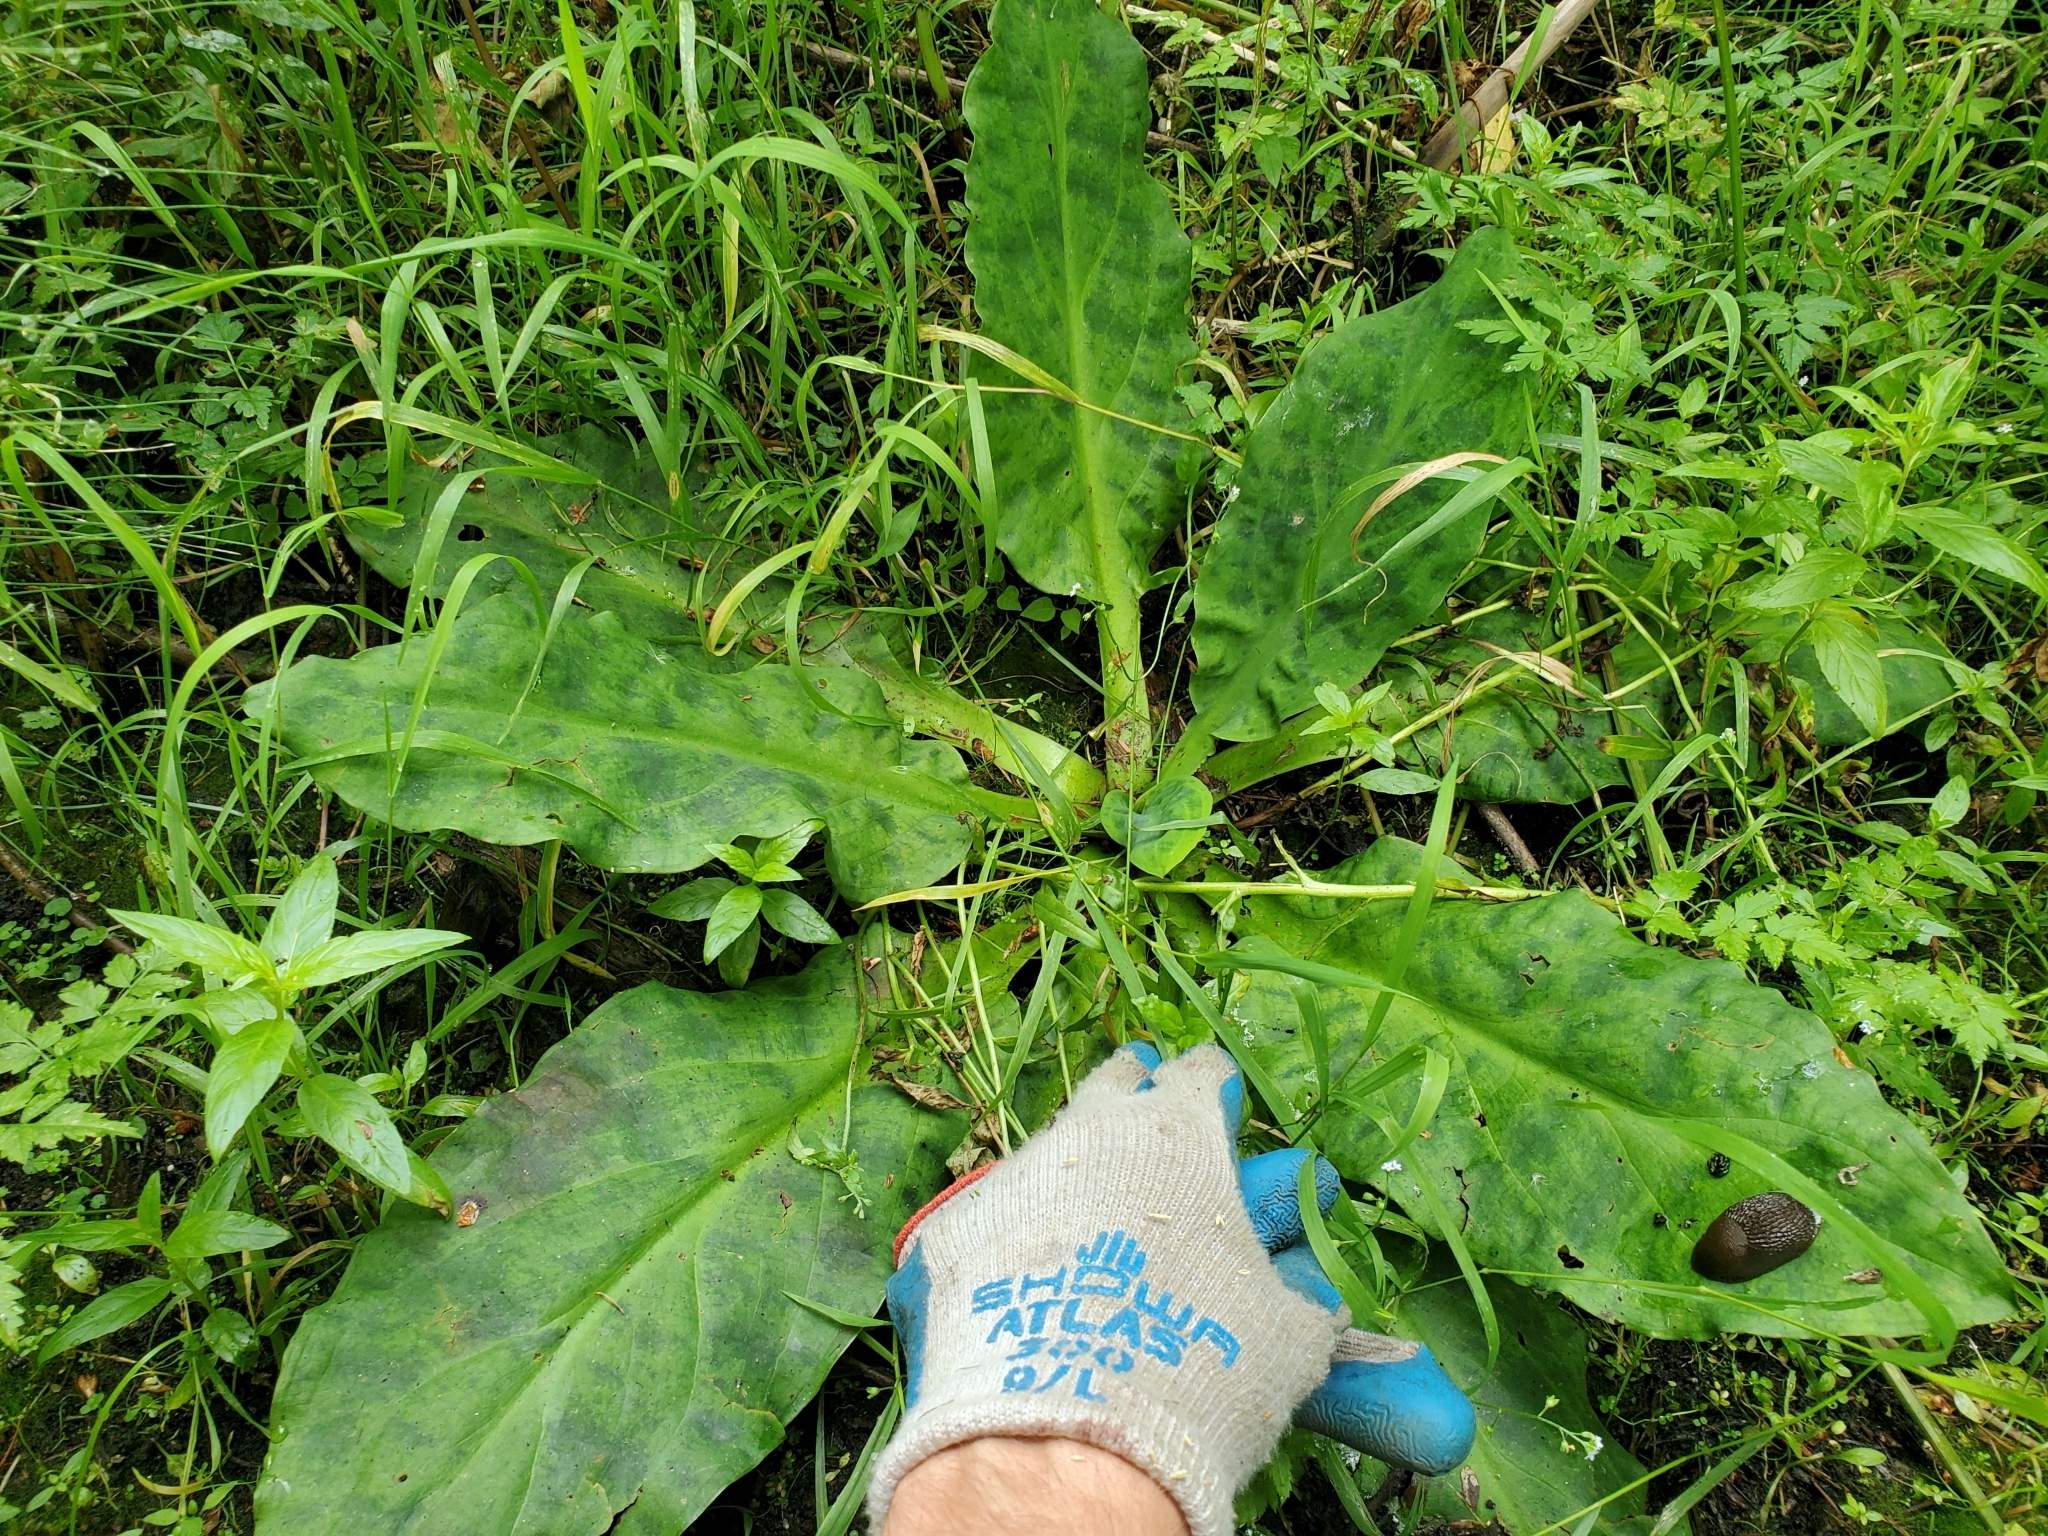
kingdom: Plantae
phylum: Tracheophyta
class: Liliopsida
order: Alismatales
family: Araceae
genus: Lysichiton
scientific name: Lysichiton americanus
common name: American skunk cabbage
